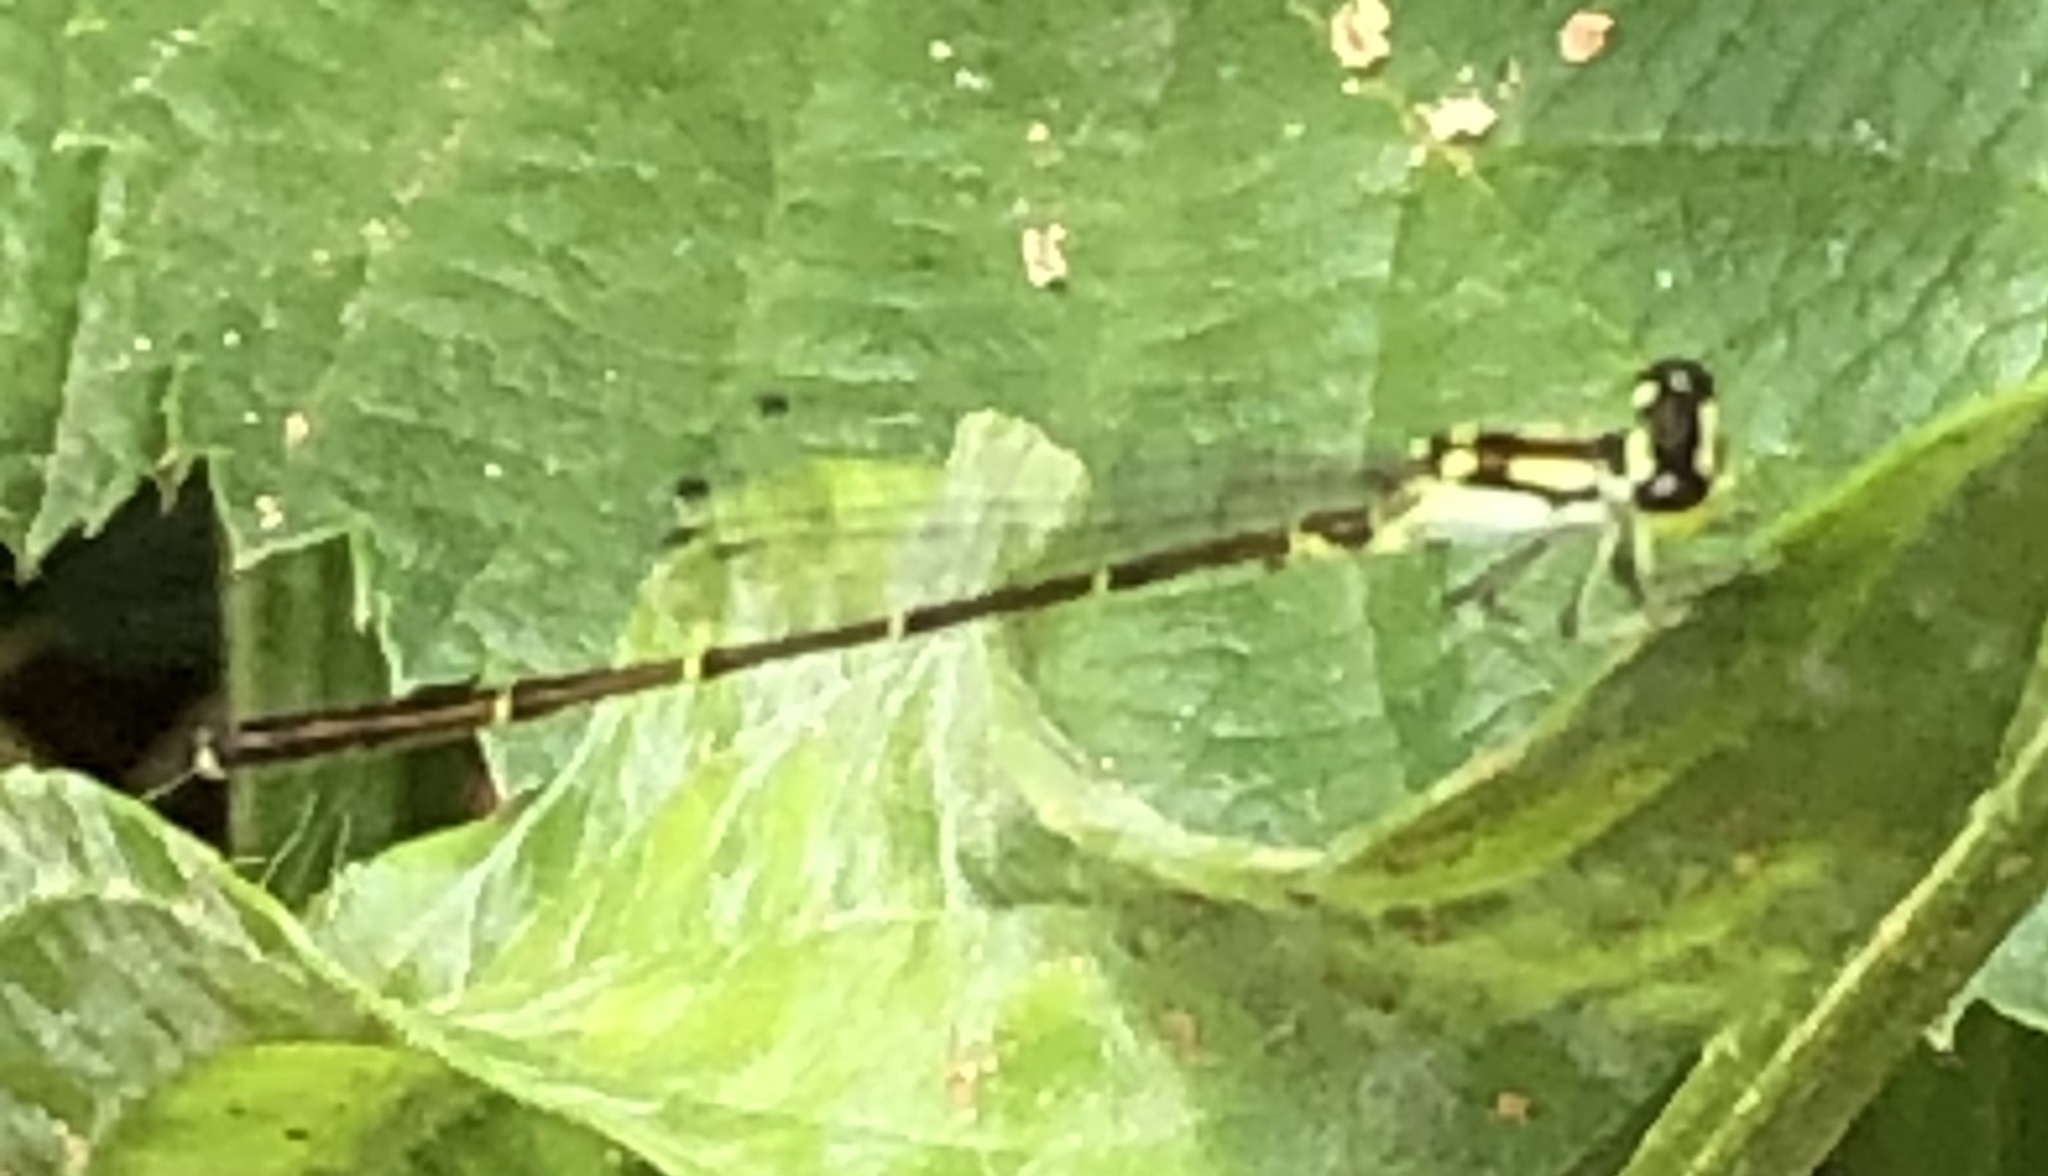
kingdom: Animalia
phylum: Arthropoda
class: Insecta
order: Odonata
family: Coenagrionidae
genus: Ischnura
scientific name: Ischnura posita
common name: Fragile forktail
